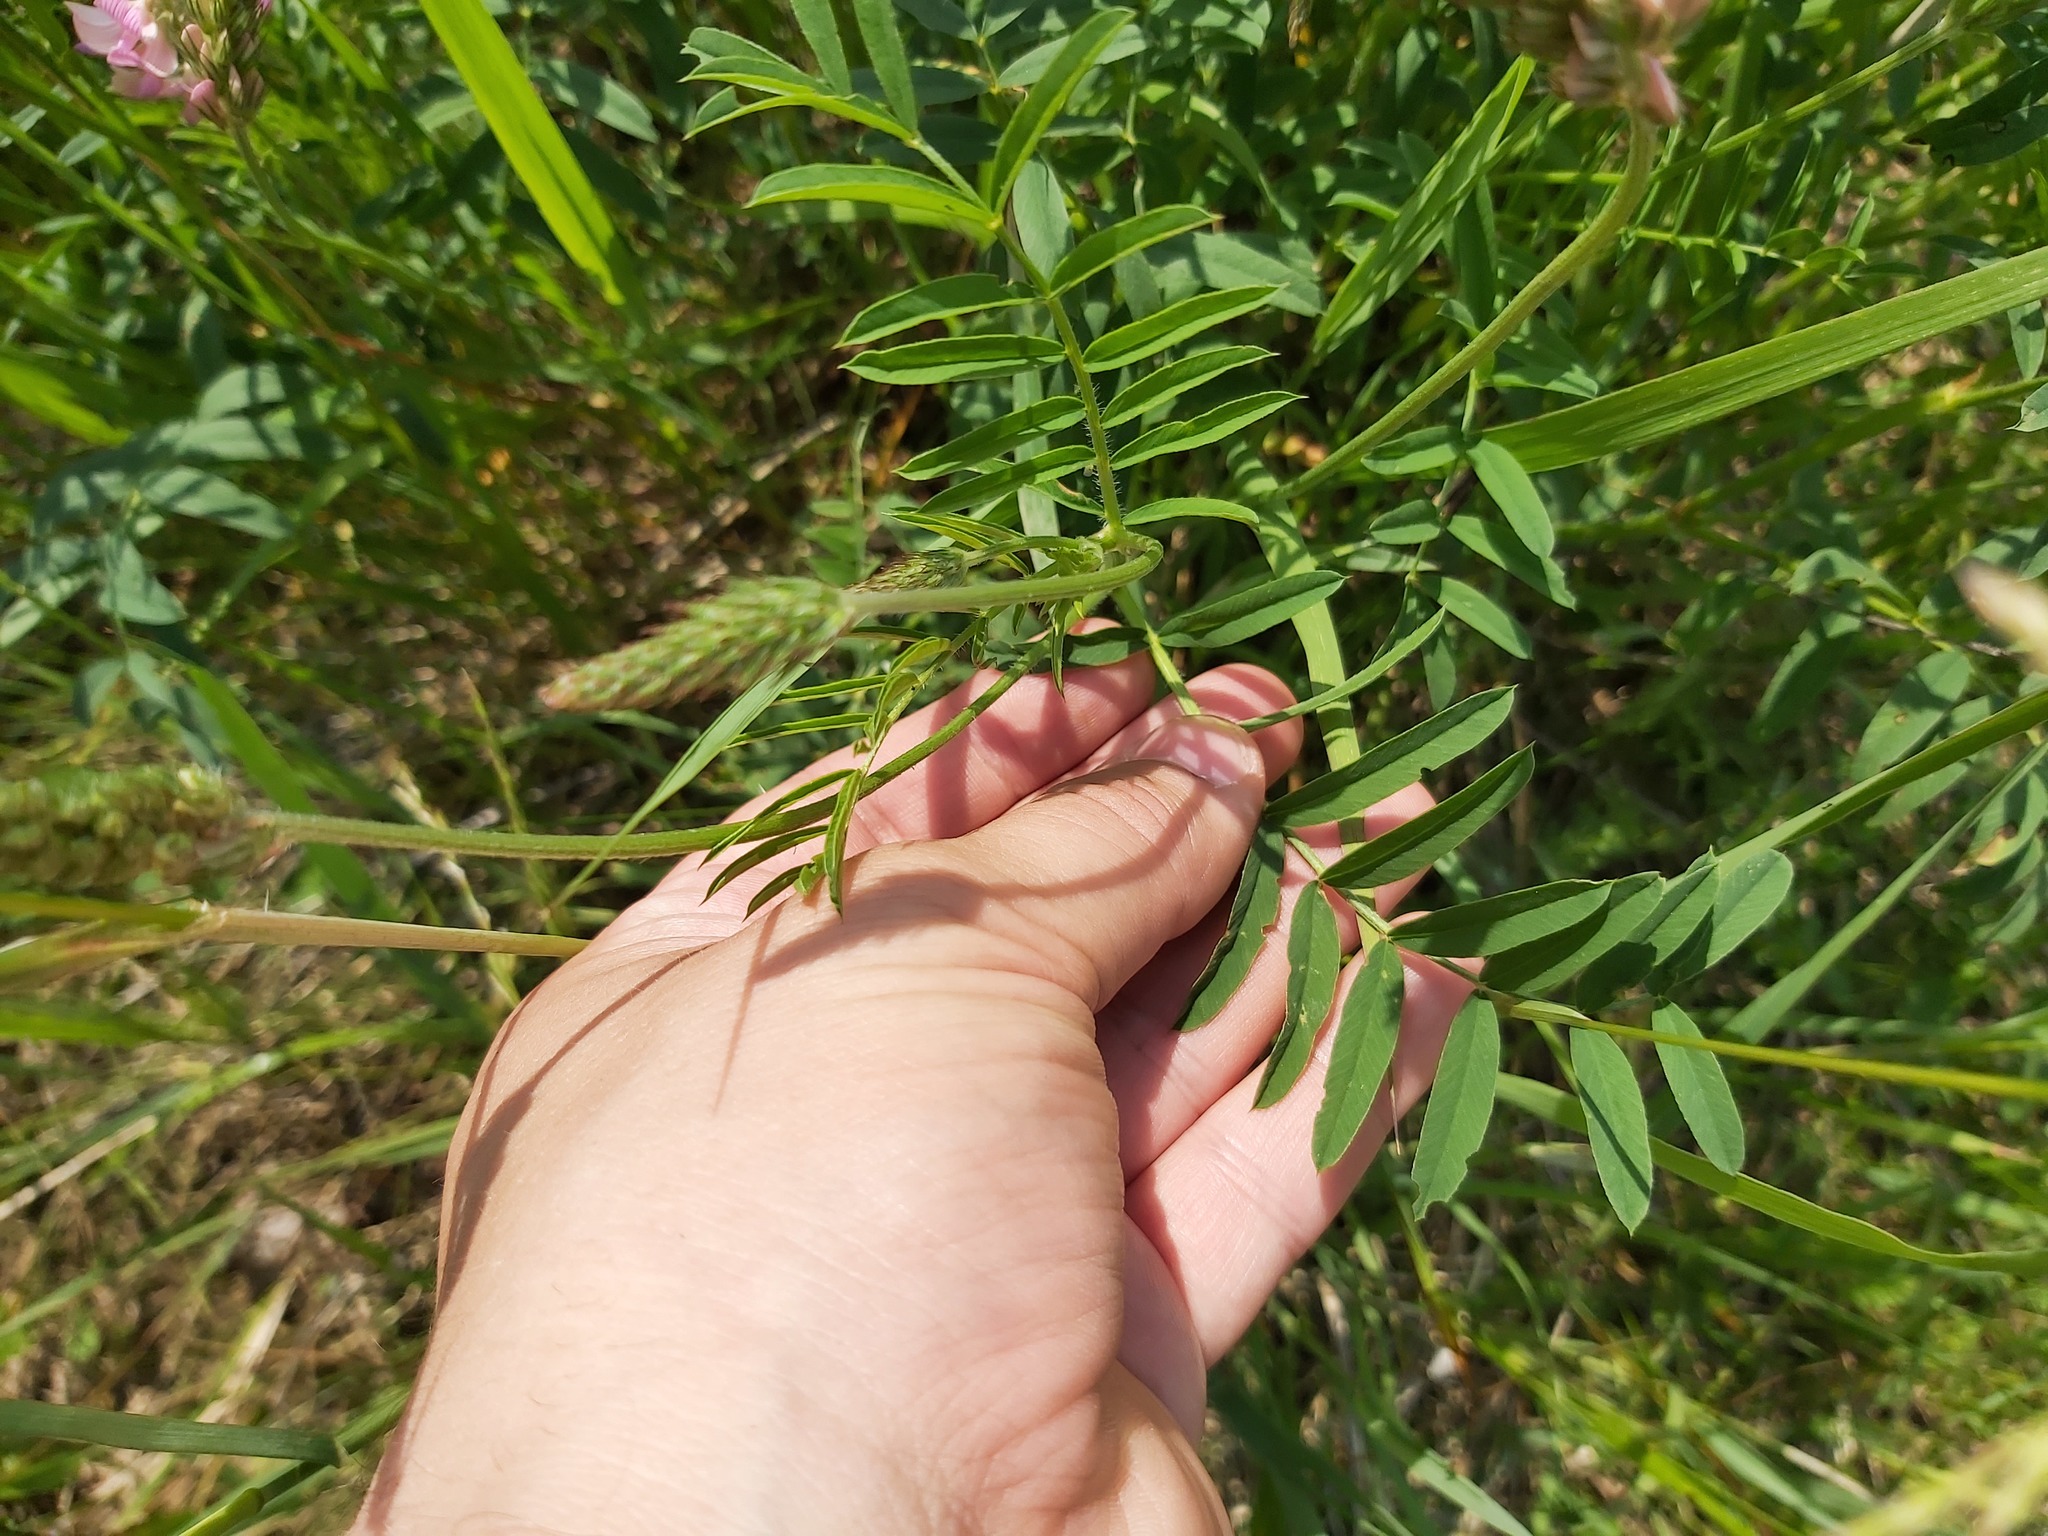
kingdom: Plantae
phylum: Tracheophyta
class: Magnoliopsida
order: Fabales
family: Fabaceae
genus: Onobrychis
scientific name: Onobrychis viciifolia
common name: Sainfoin
